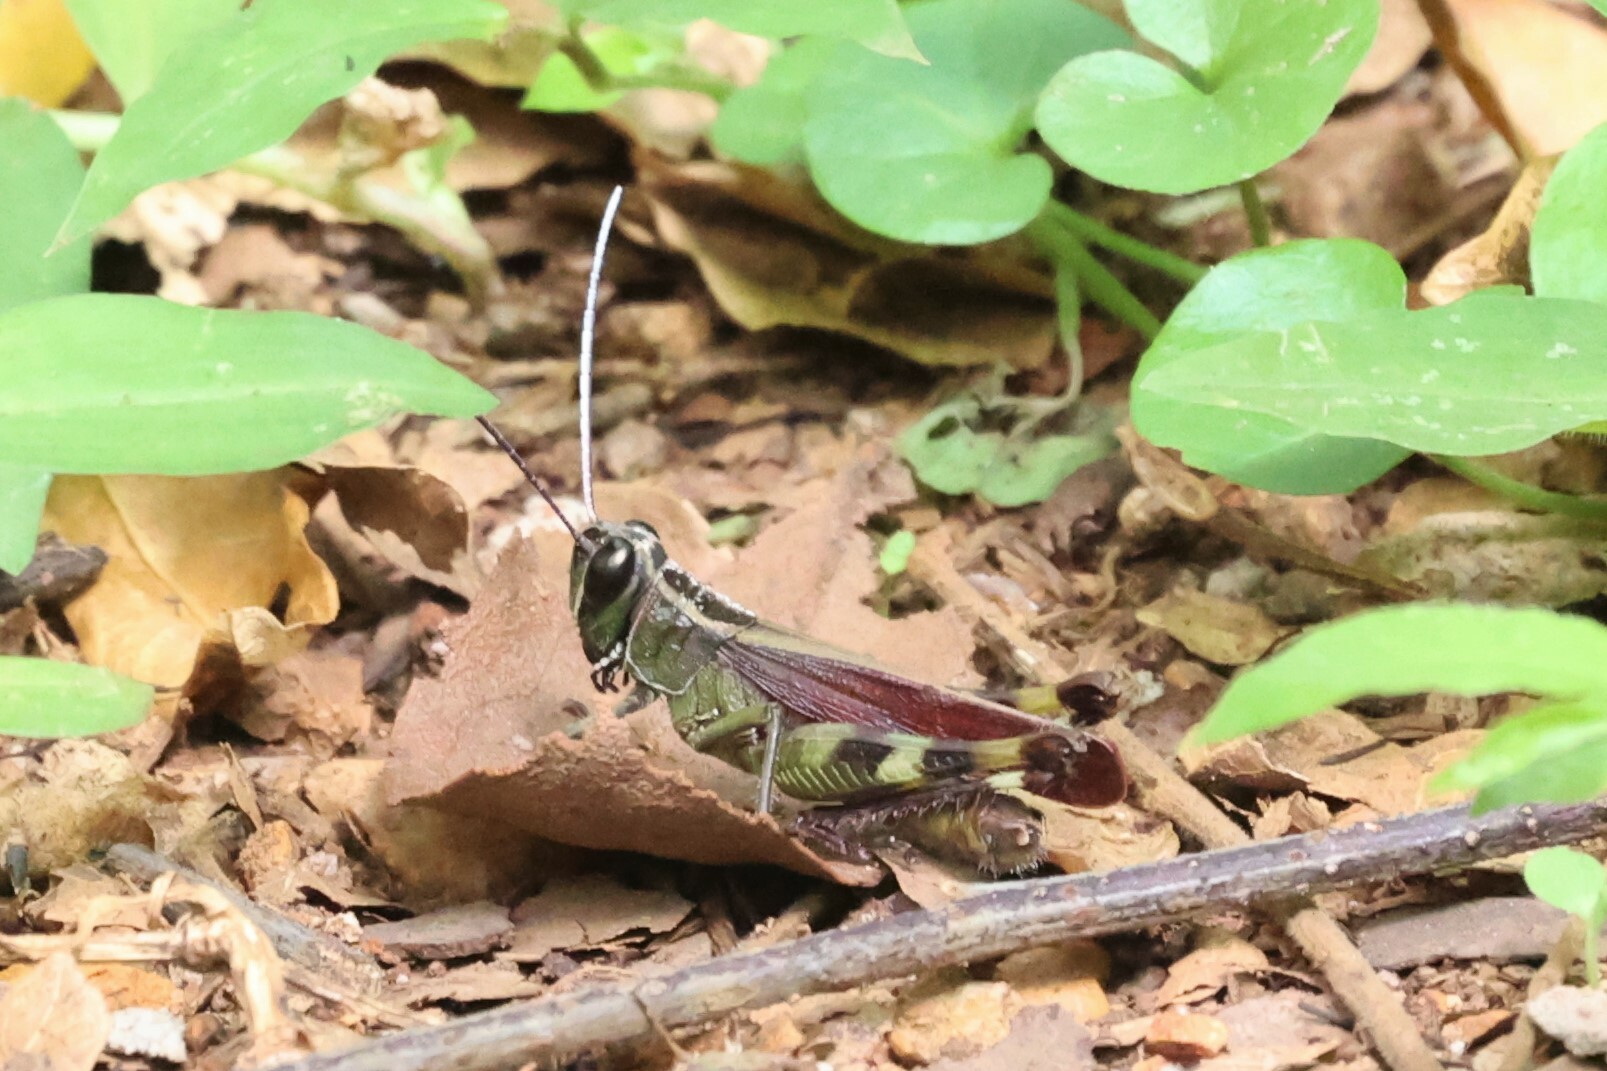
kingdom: Animalia
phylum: Arthropoda
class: Insecta
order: Orthoptera
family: Acrididae
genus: Heteracris
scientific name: Heteracris vinacea
